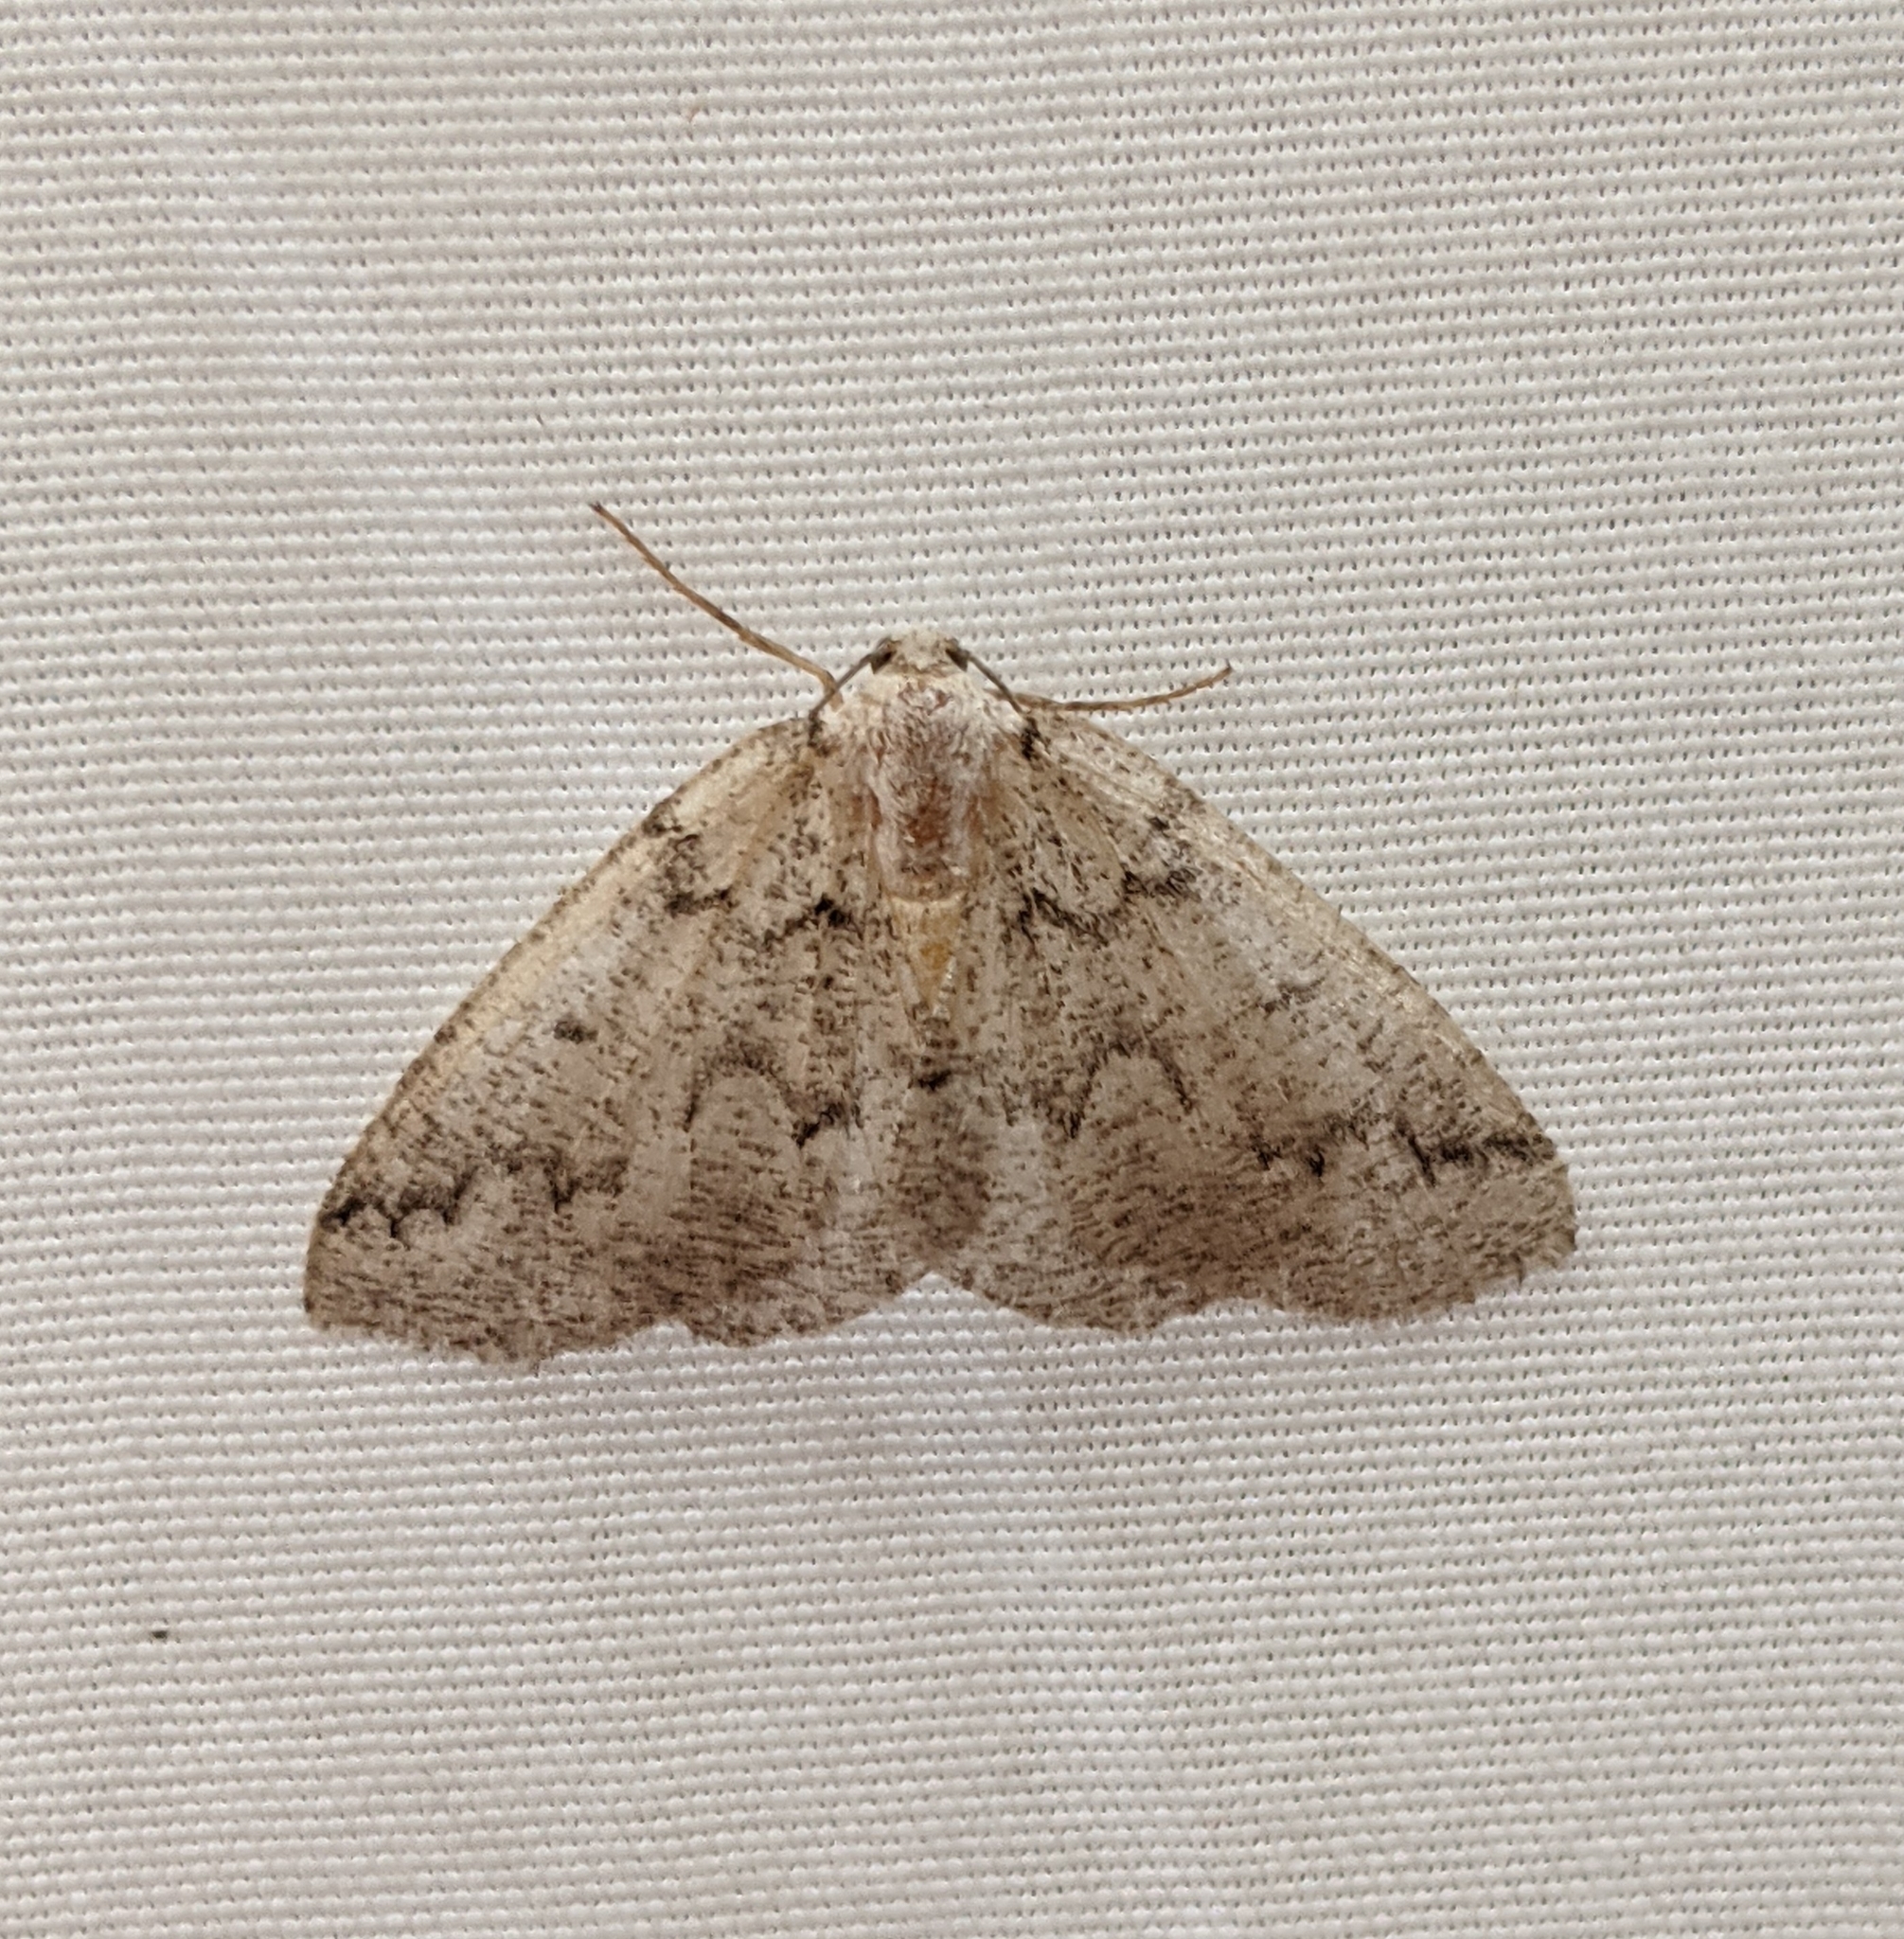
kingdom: Animalia
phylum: Arthropoda
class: Insecta
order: Lepidoptera
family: Geometridae
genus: Sabulodes
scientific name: Sabulodes
